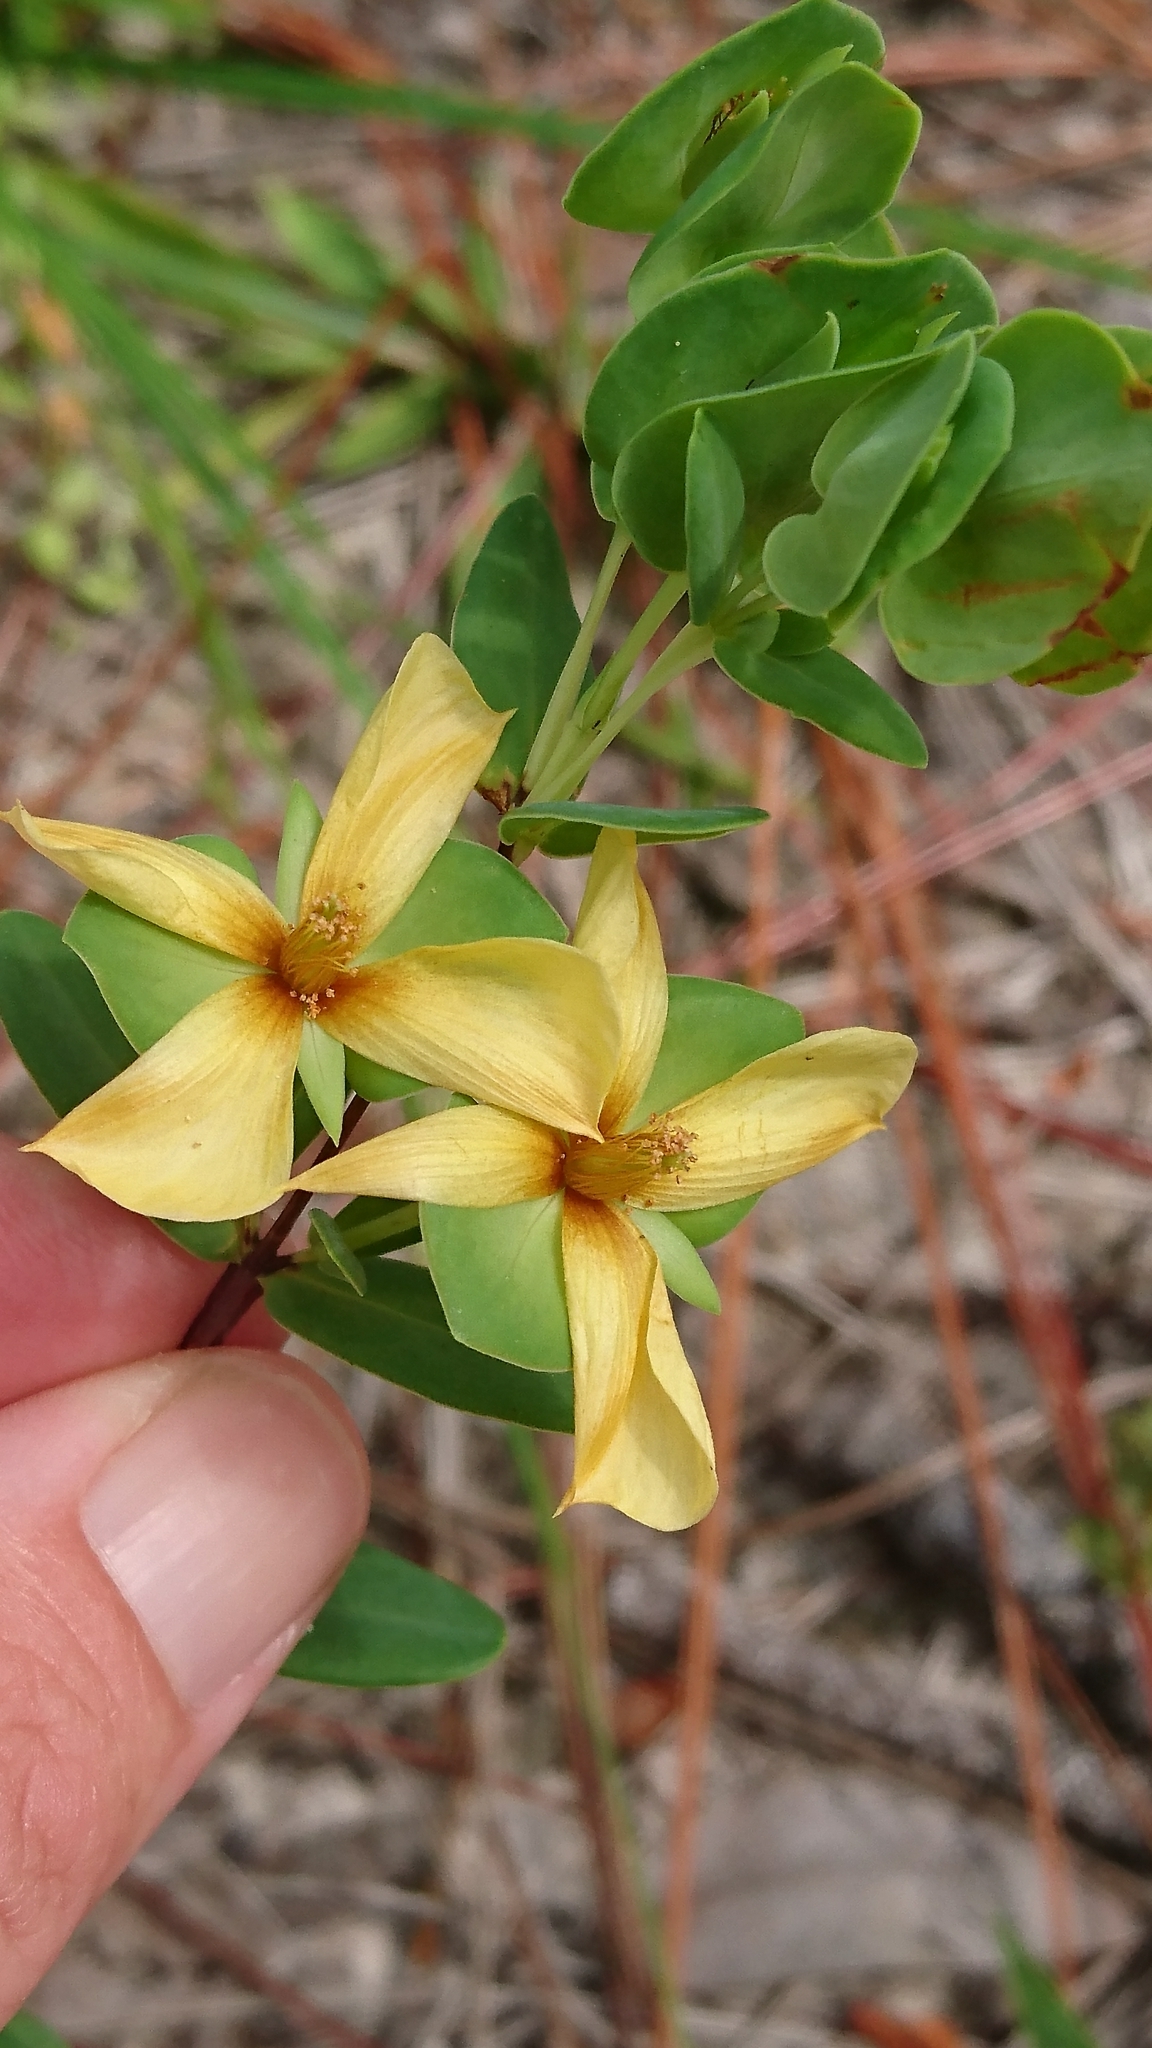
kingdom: Plantae
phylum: Tracheophyta
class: Magnoliopsida
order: Malpighiales
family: Hypericaceae
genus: Hypericum
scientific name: Hypericum crux-andreae
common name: St.-peter's-wort
